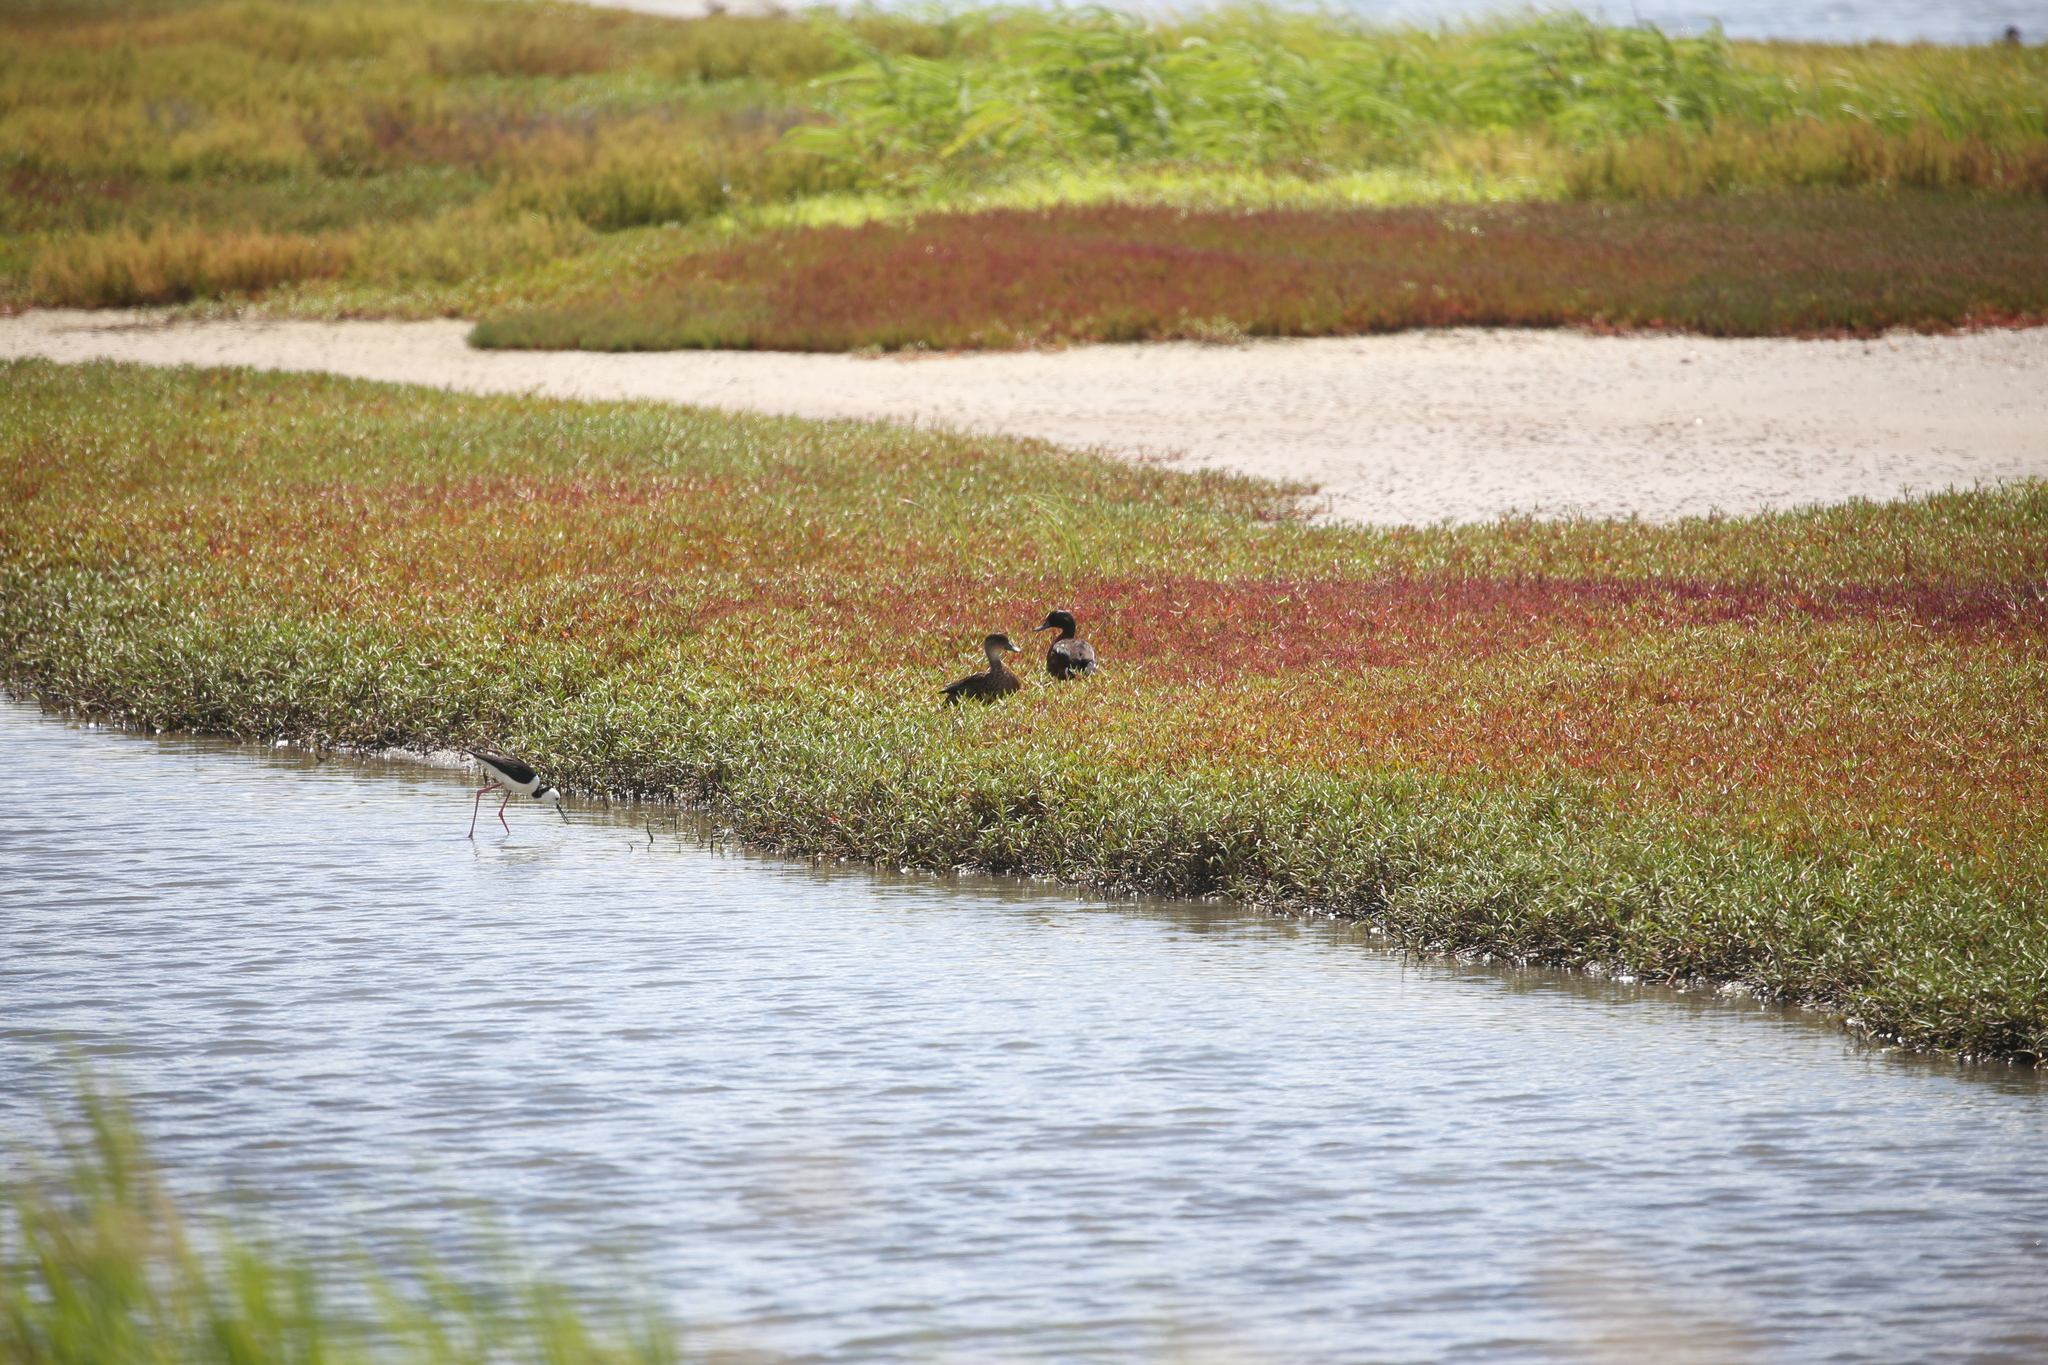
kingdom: Animalia
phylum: Chordata
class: Aves
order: Anseriformes
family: Anatidae
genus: Anas
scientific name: Anas castanea
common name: Chestnut teal
